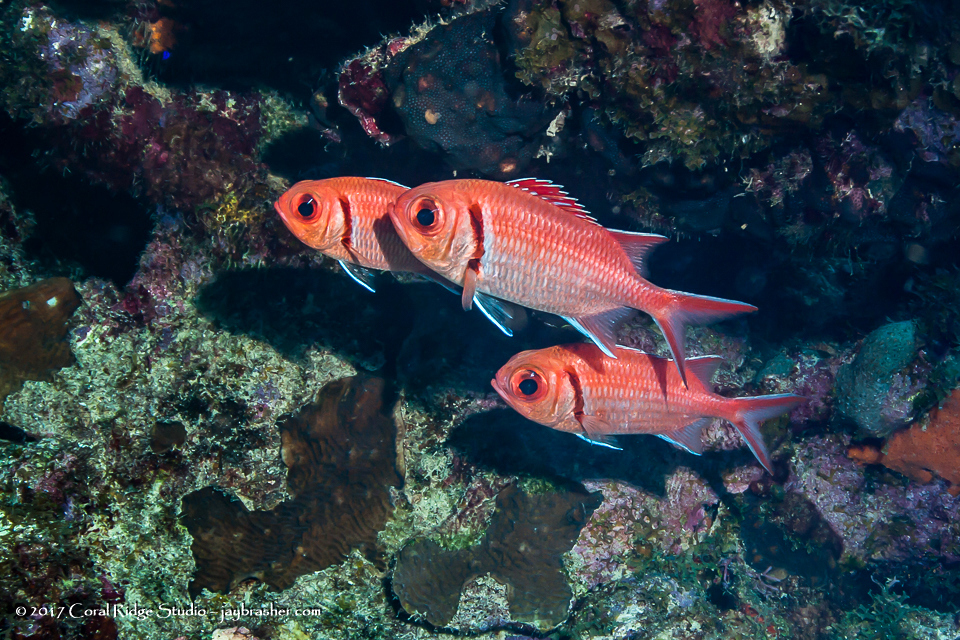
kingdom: Animalia
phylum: Chordata
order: Beryciformes
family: Holocentridae
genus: Myripristis
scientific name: Myripristis jacobus
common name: Blackbar soldierfish
